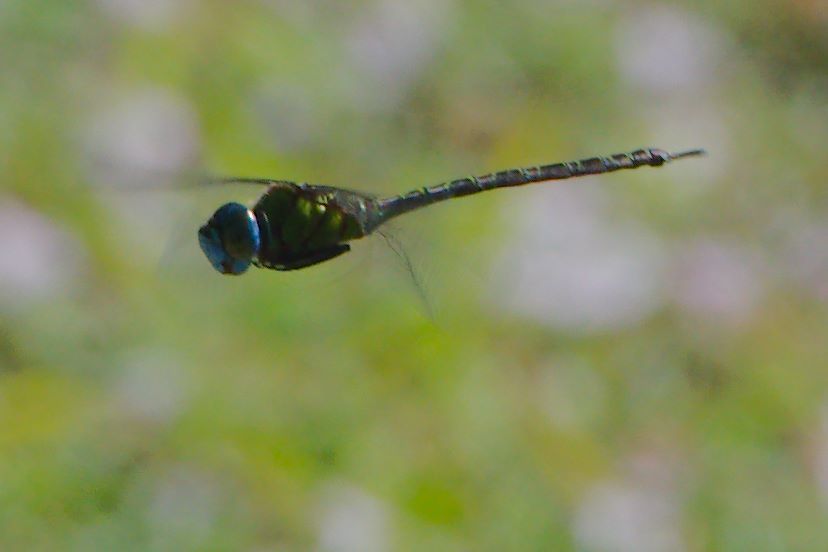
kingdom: Animalia
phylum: Arthropoda
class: Insecta
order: Odonata
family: Aeshnidae
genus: Coryphaeschna
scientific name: Coryphaeschna adnexa
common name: Blue-faced darner
